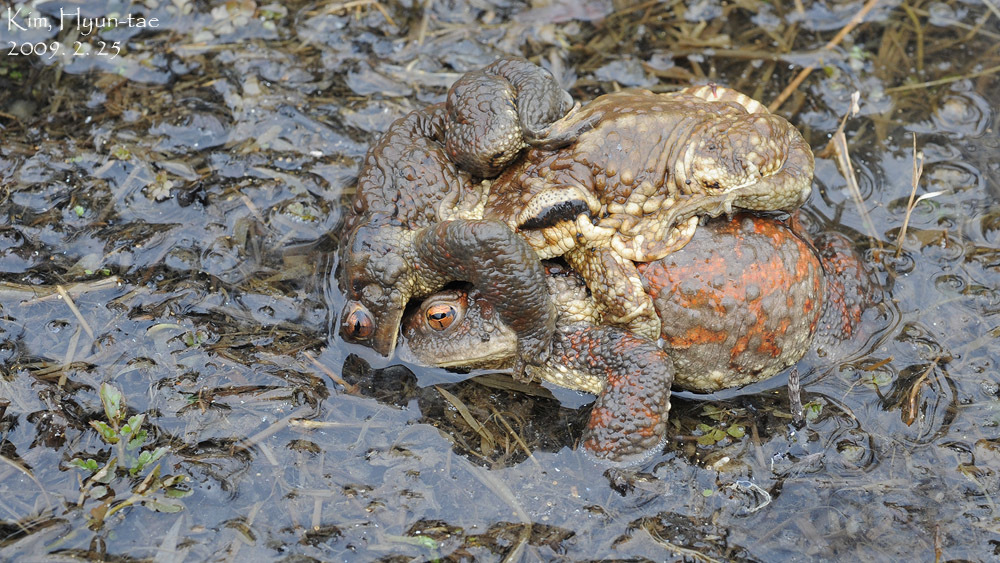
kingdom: Animalia
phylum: Chordata
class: Amphibia
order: Anura
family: Bufonidae
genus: Bufo
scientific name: Bufo gargarizans
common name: Asiatic toad
